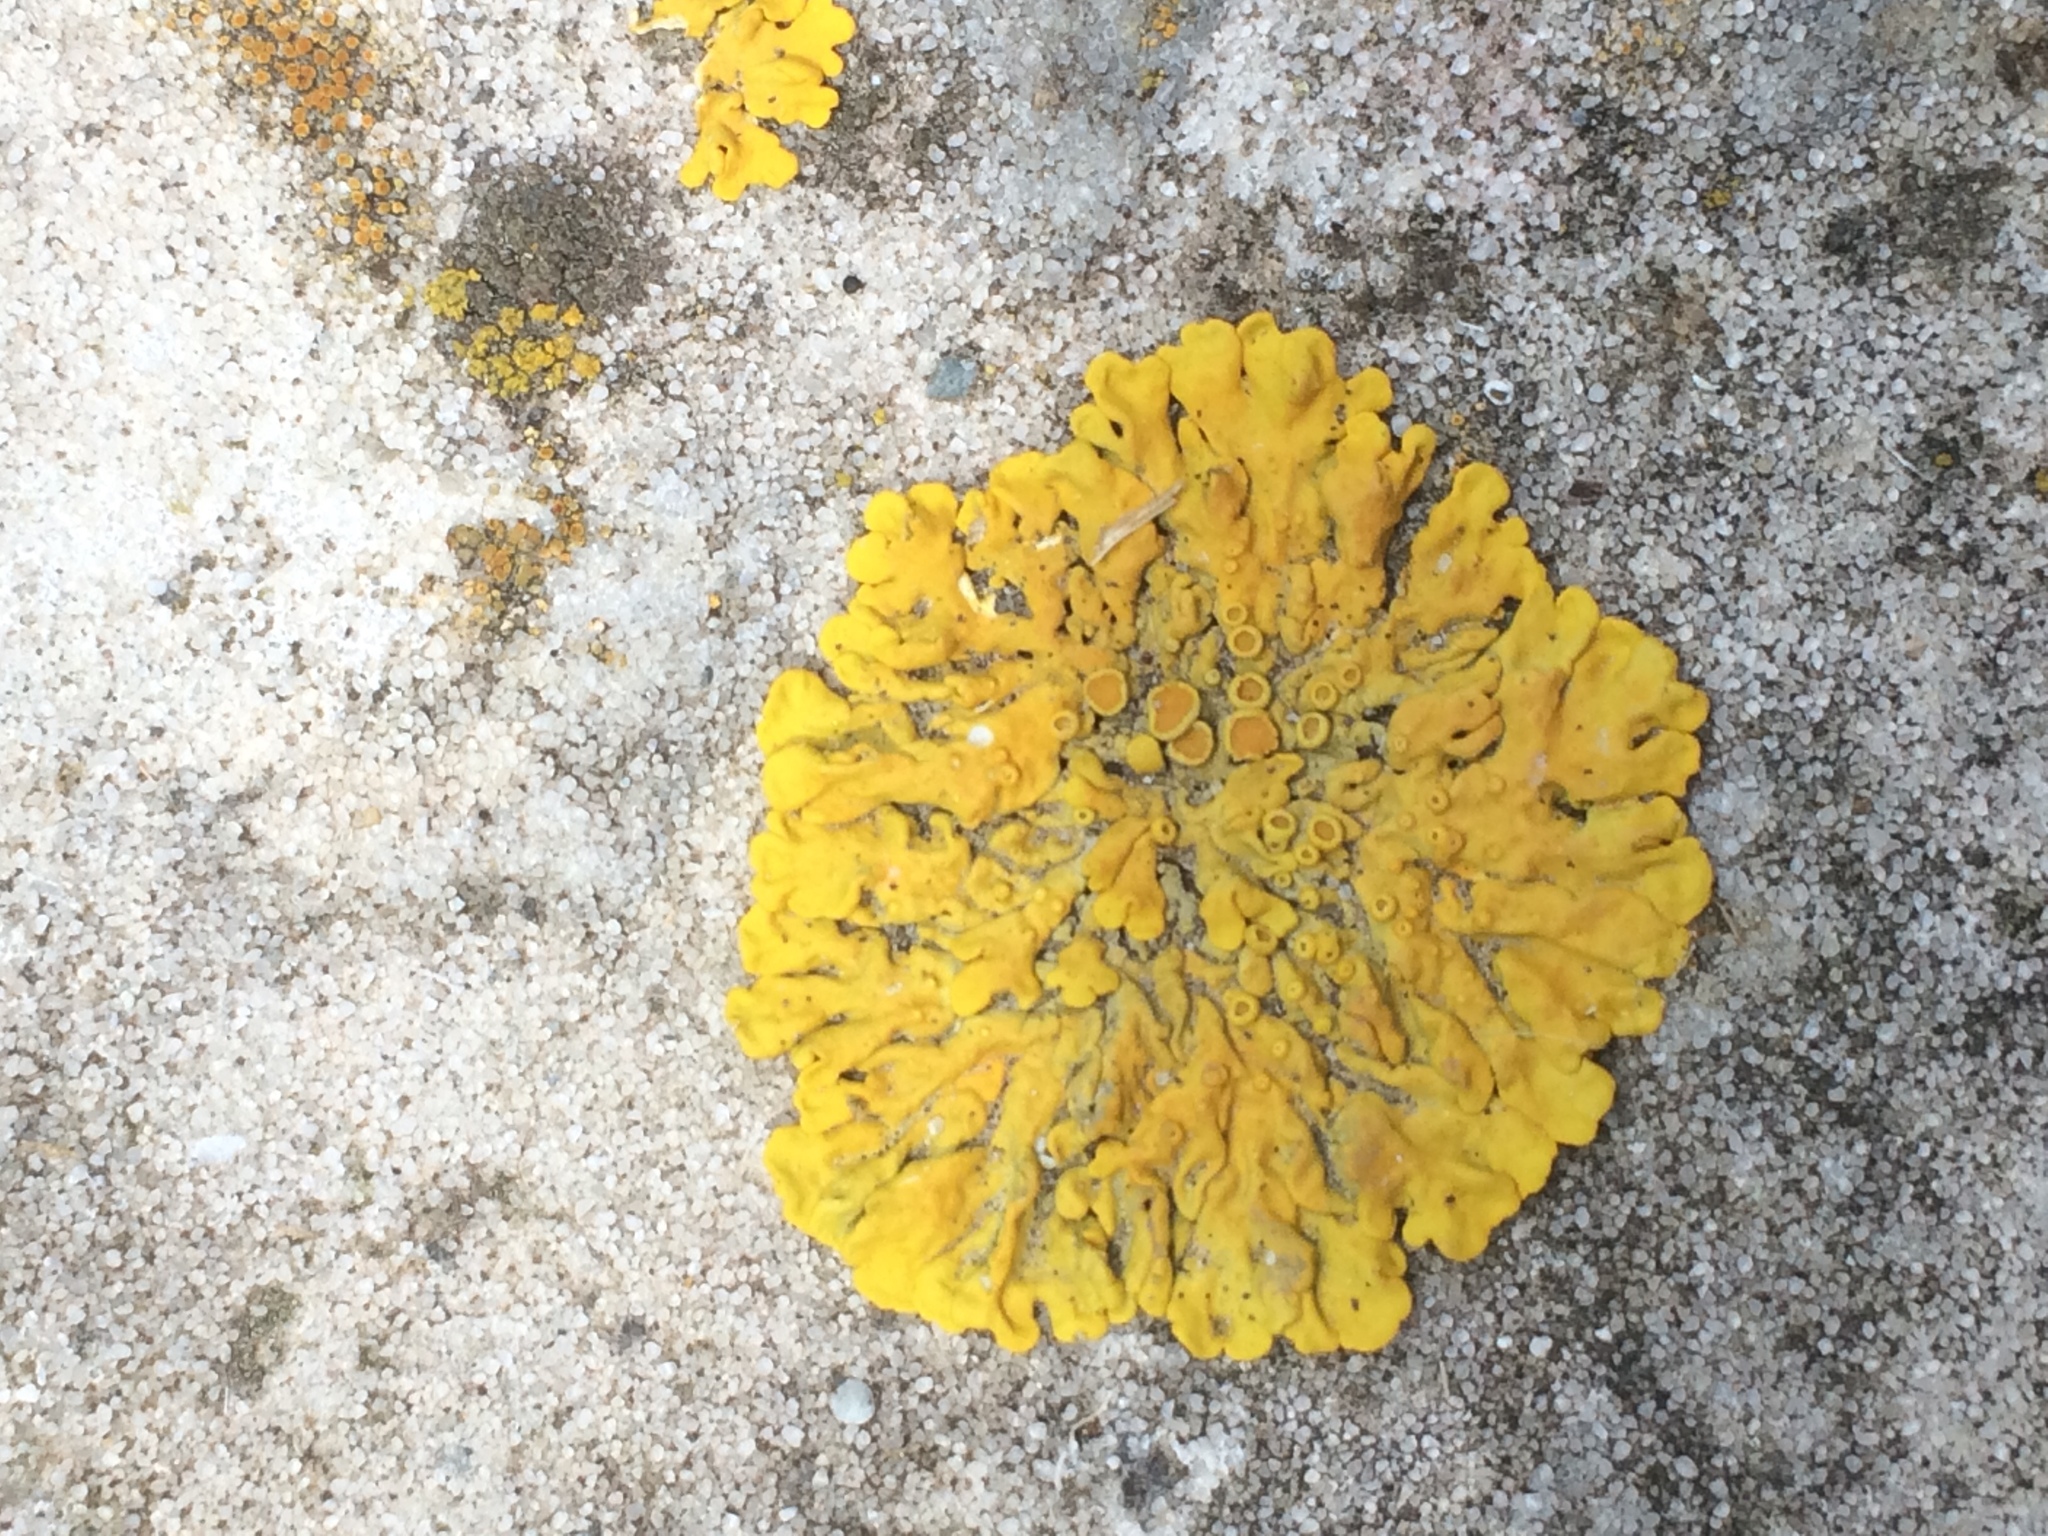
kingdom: Fungi
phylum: Ascomycota
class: Lecanoromycetes
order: Teloschistales
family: Teloschistaceae
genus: Xanthoria
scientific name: Xanthoria parietina
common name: Common orange lichen
